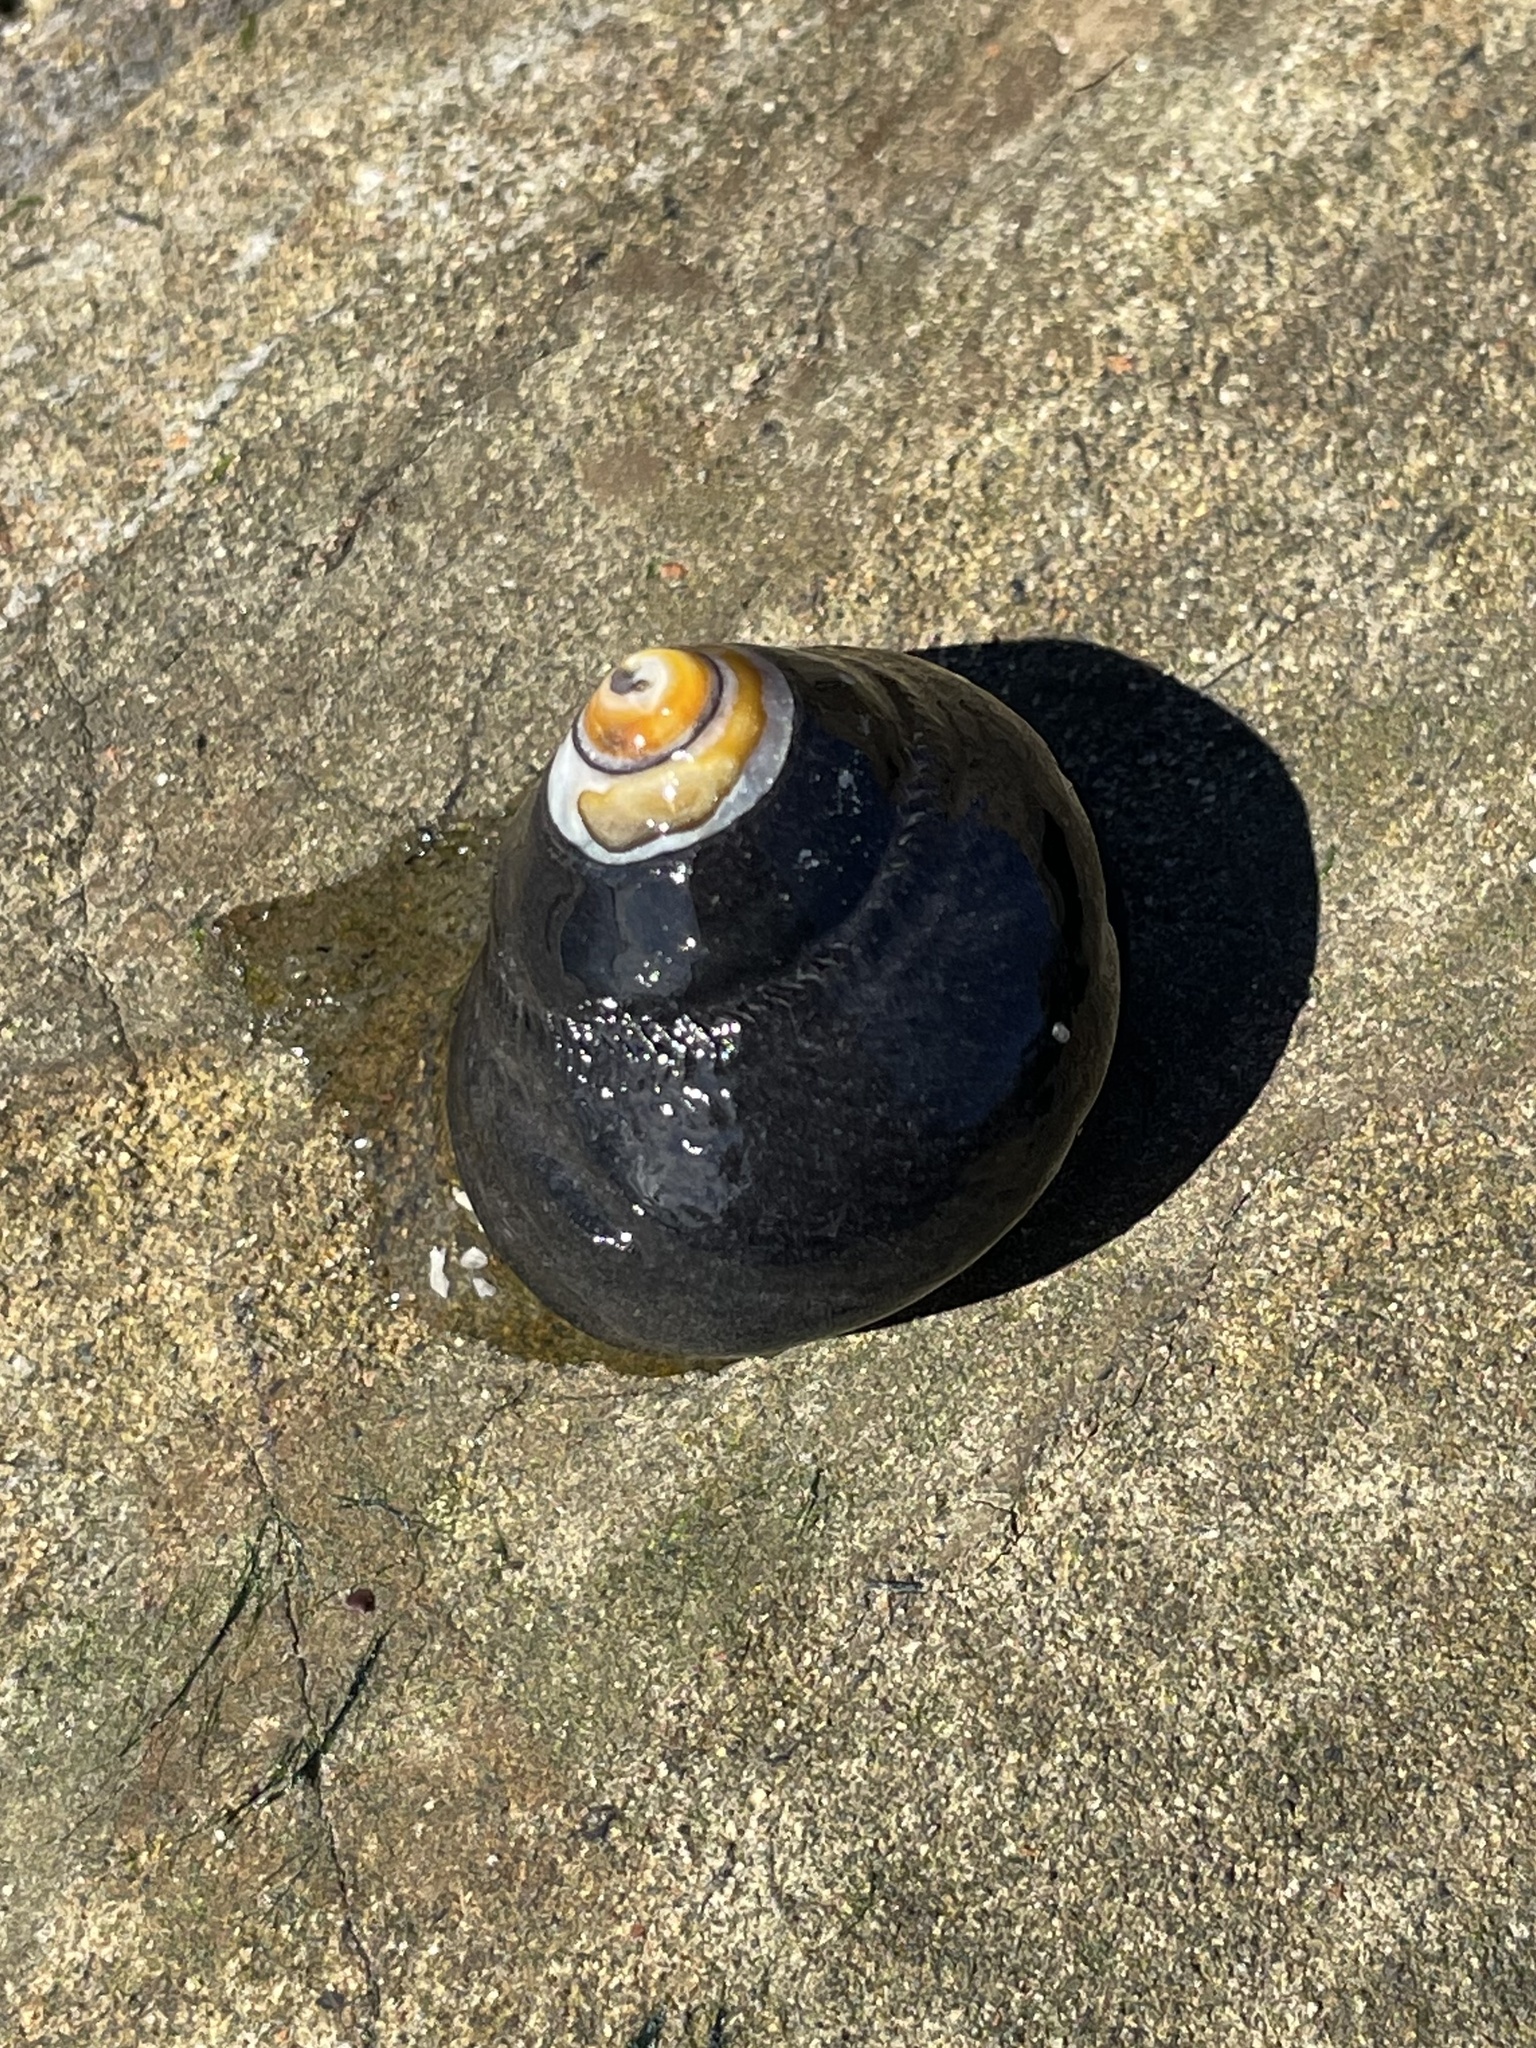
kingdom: Animalia
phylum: Mollusca
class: Gastropoda
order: Trochida
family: Tegulidae
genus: Tegula
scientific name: Tegula funebralis
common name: Black tegula
